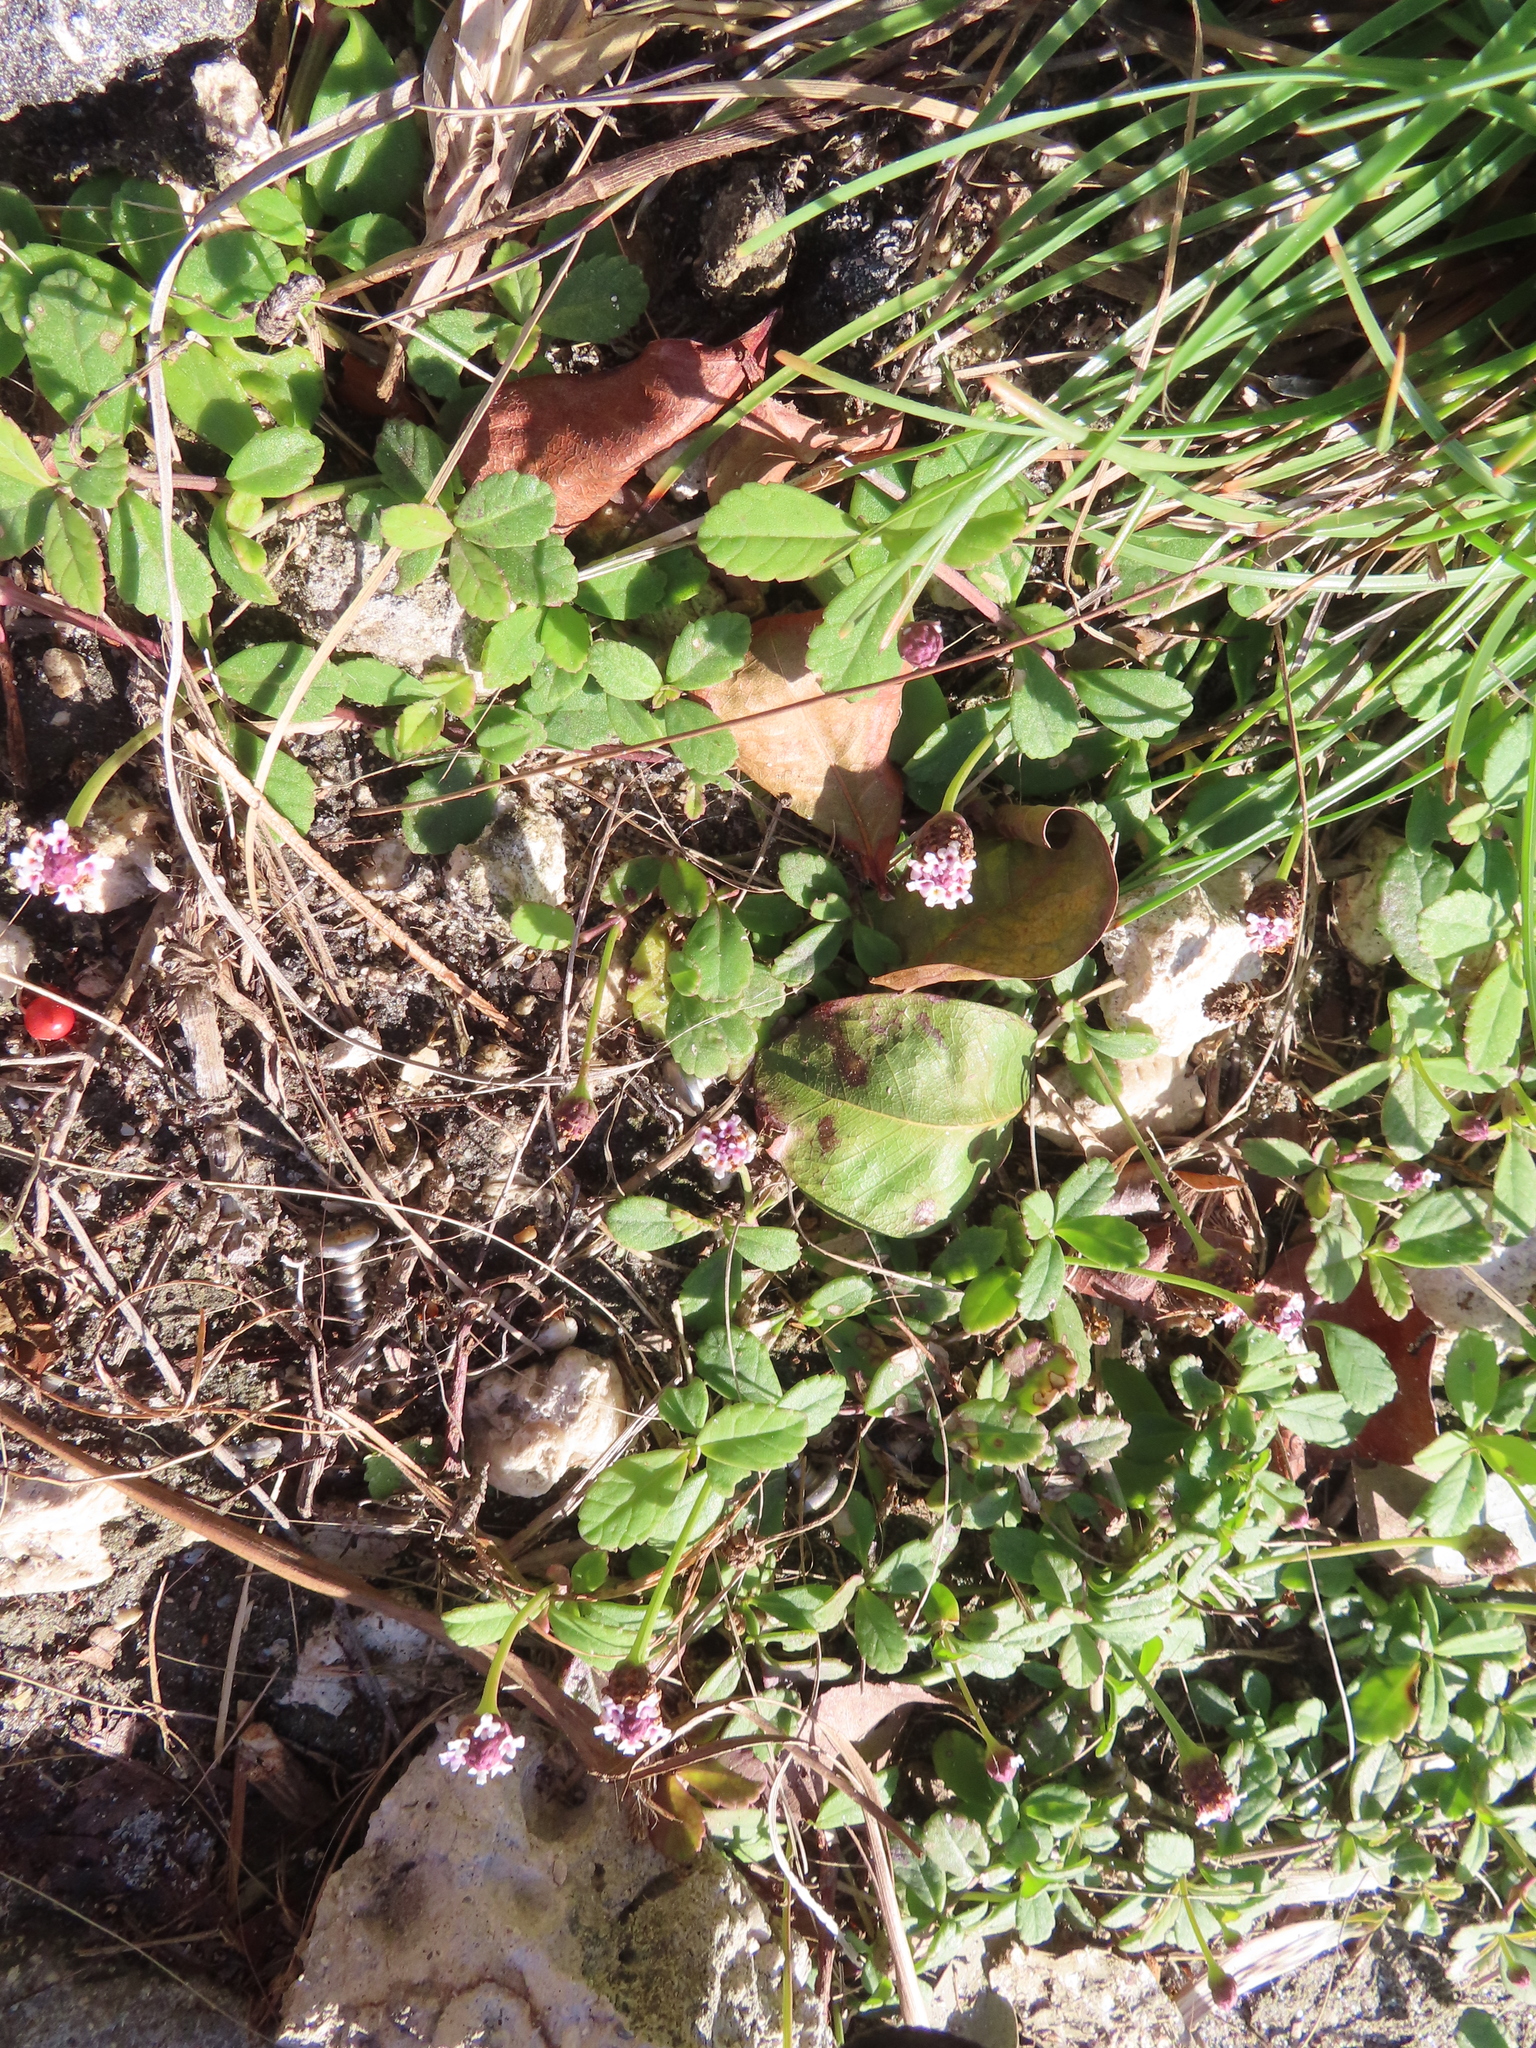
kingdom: Plantae
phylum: Tracheophyta
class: Magnoliopsida
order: Lamiales
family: Verbenaceae
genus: Phyla
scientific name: Phyla nodiflora
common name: Frogfruit
